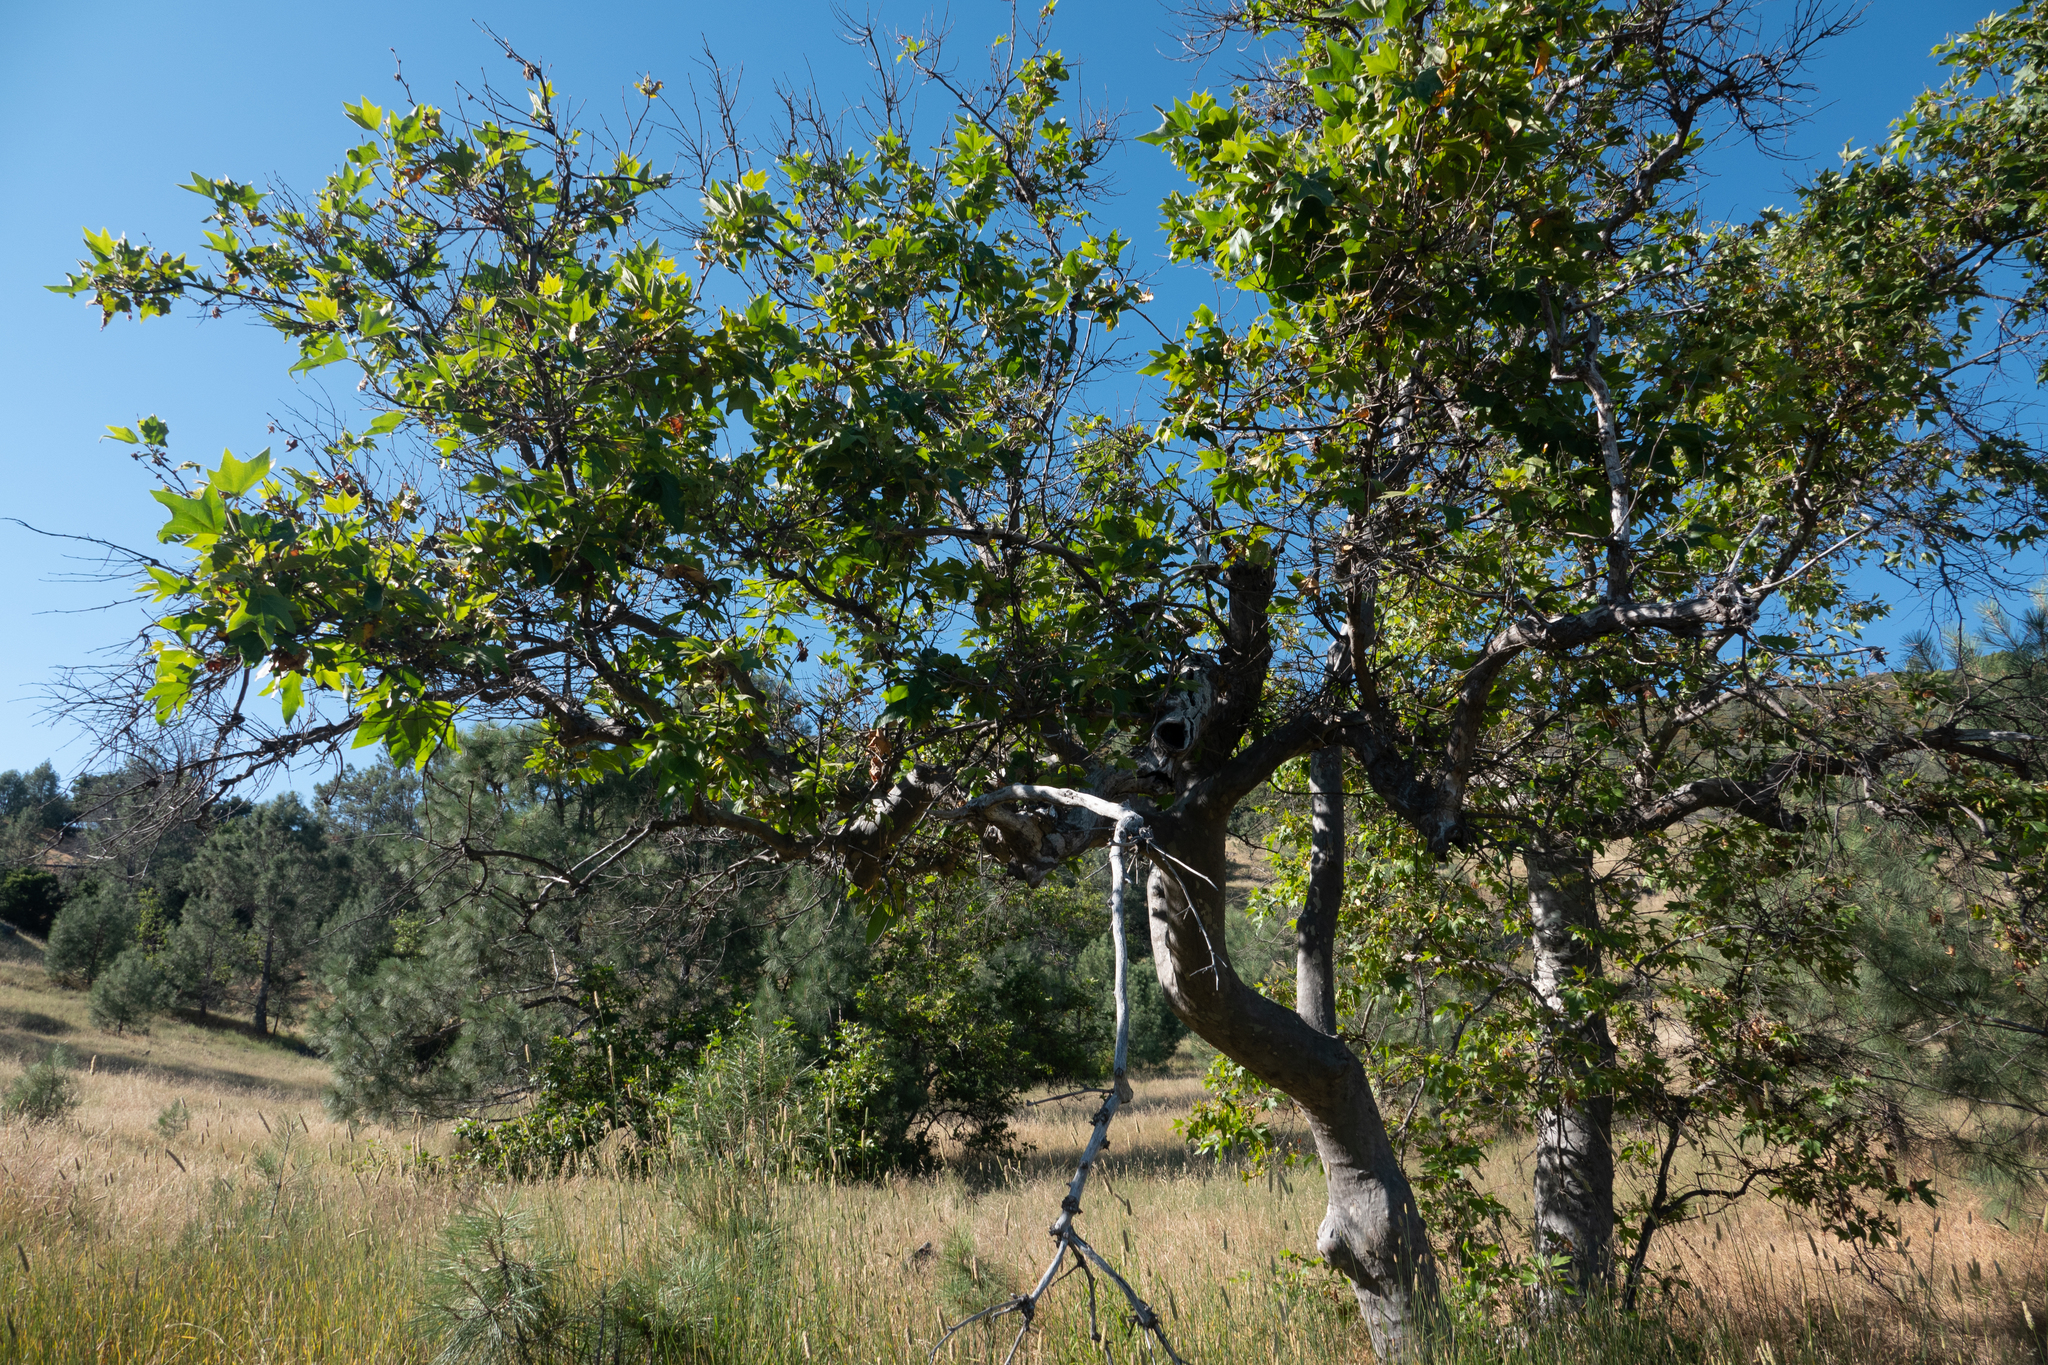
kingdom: Plantae
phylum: Tracheophyta
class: Magnoliopsida
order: Proteales
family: Platanaceae
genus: Platanus
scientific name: Platanus racemosa
